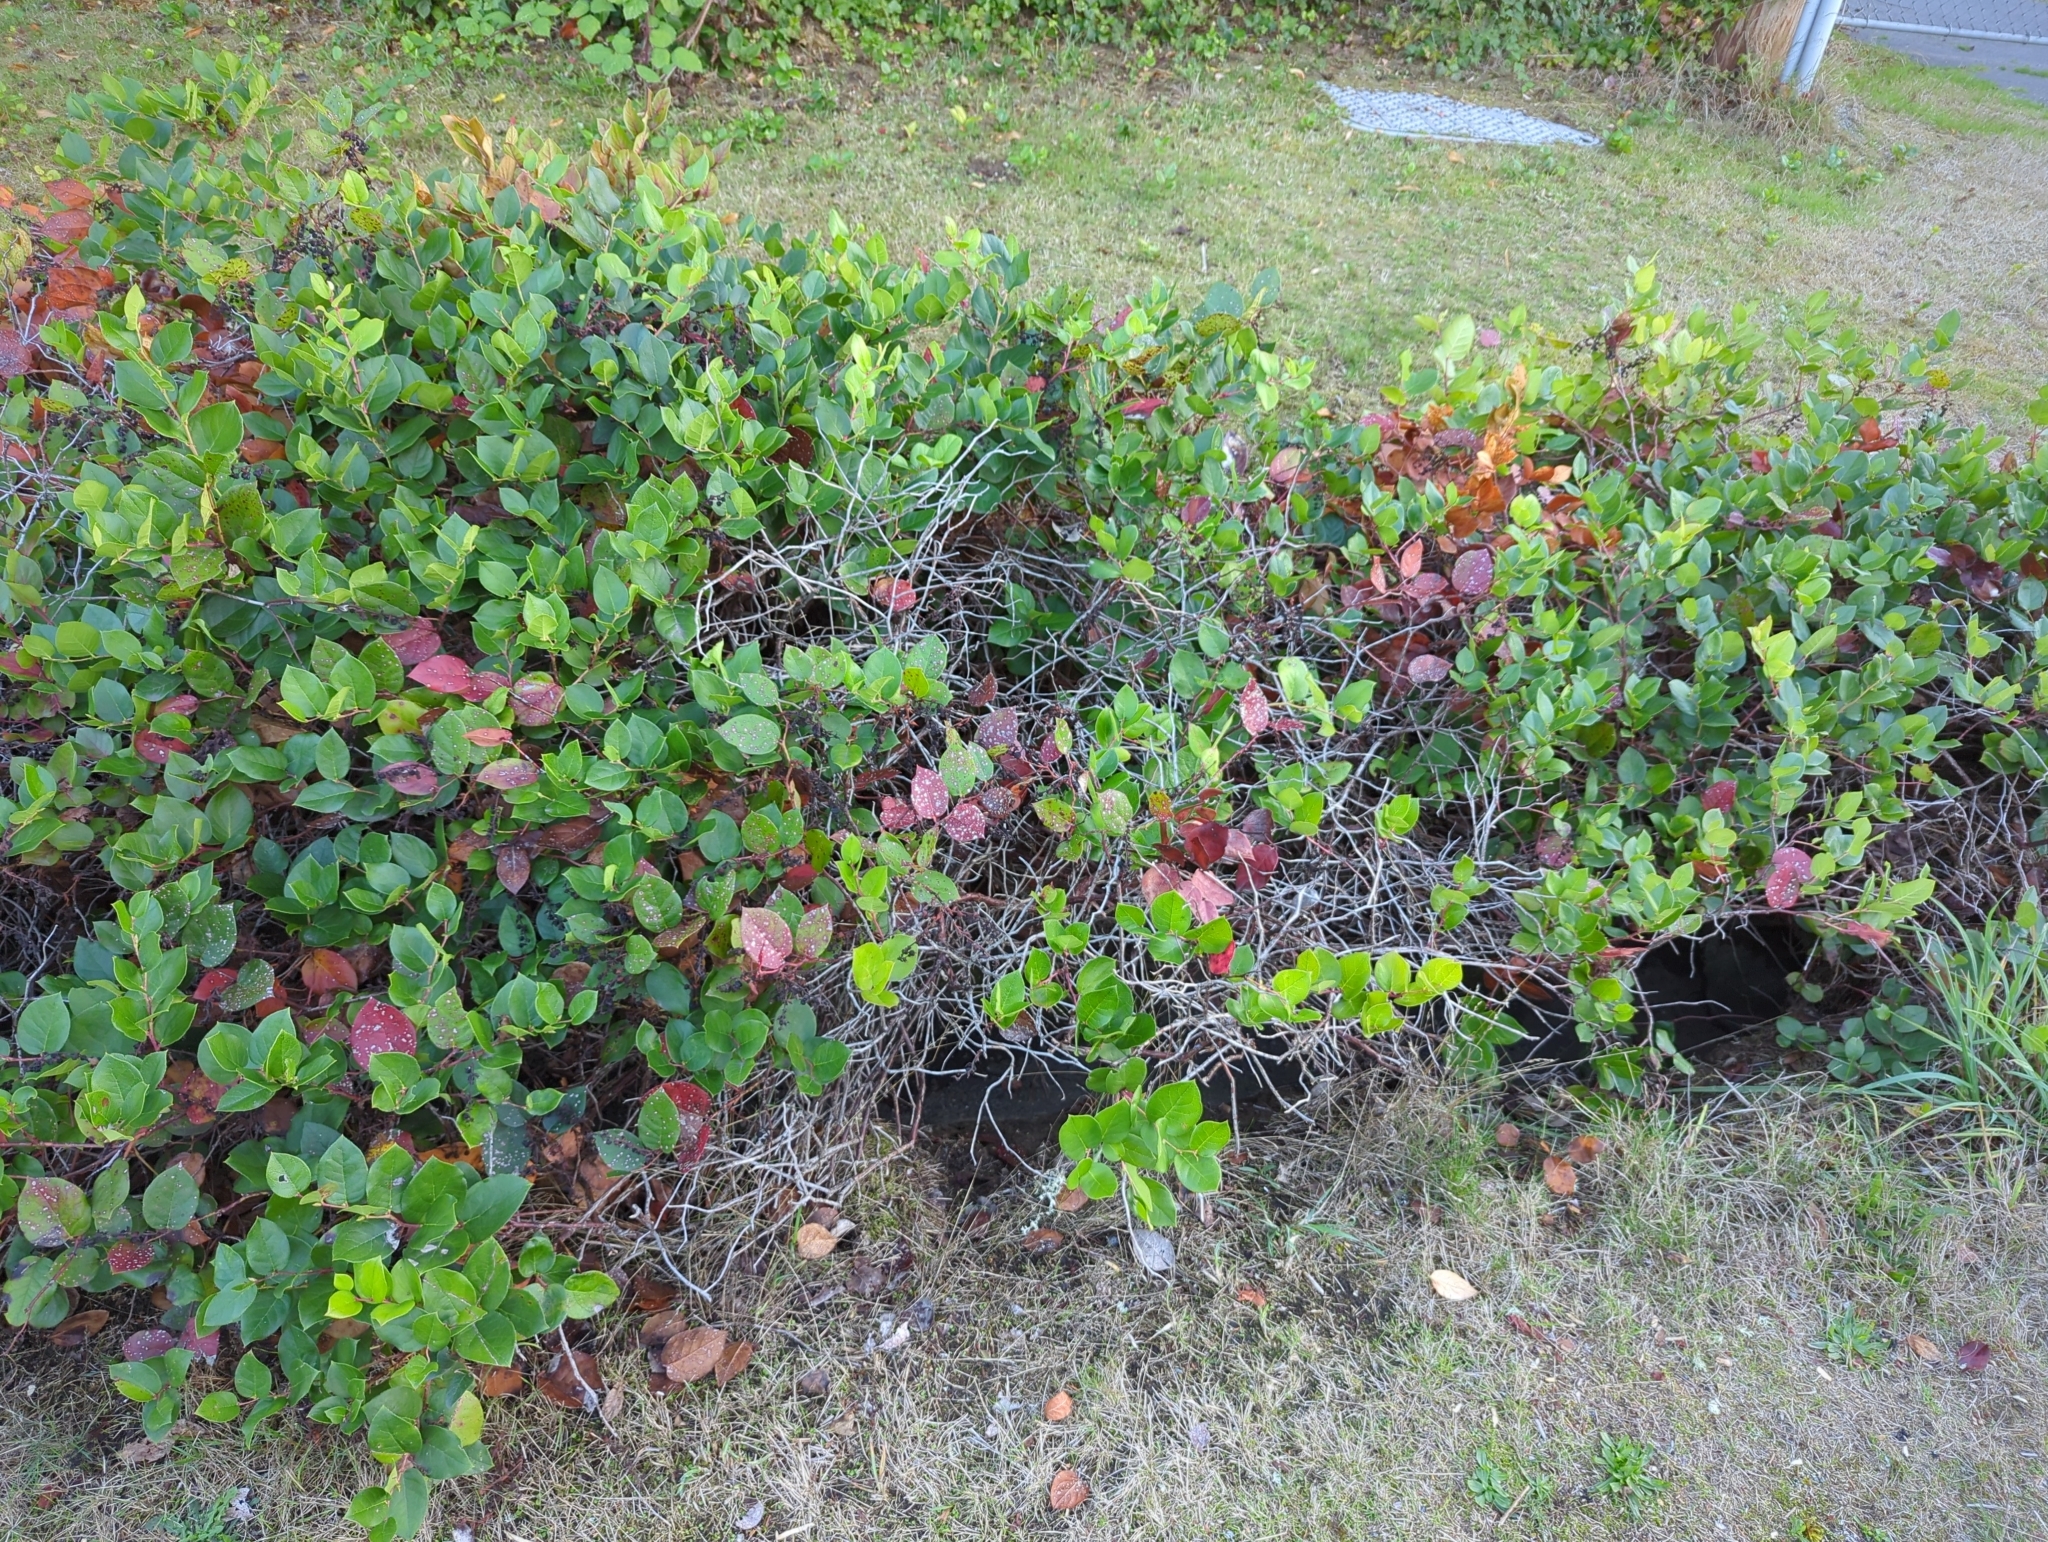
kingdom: Plantae
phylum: Tracheophyta
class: Magnoliopsida
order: Ericales
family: Ericaceae
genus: Gaultheria
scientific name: Gaultheria shallon
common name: Shallon
